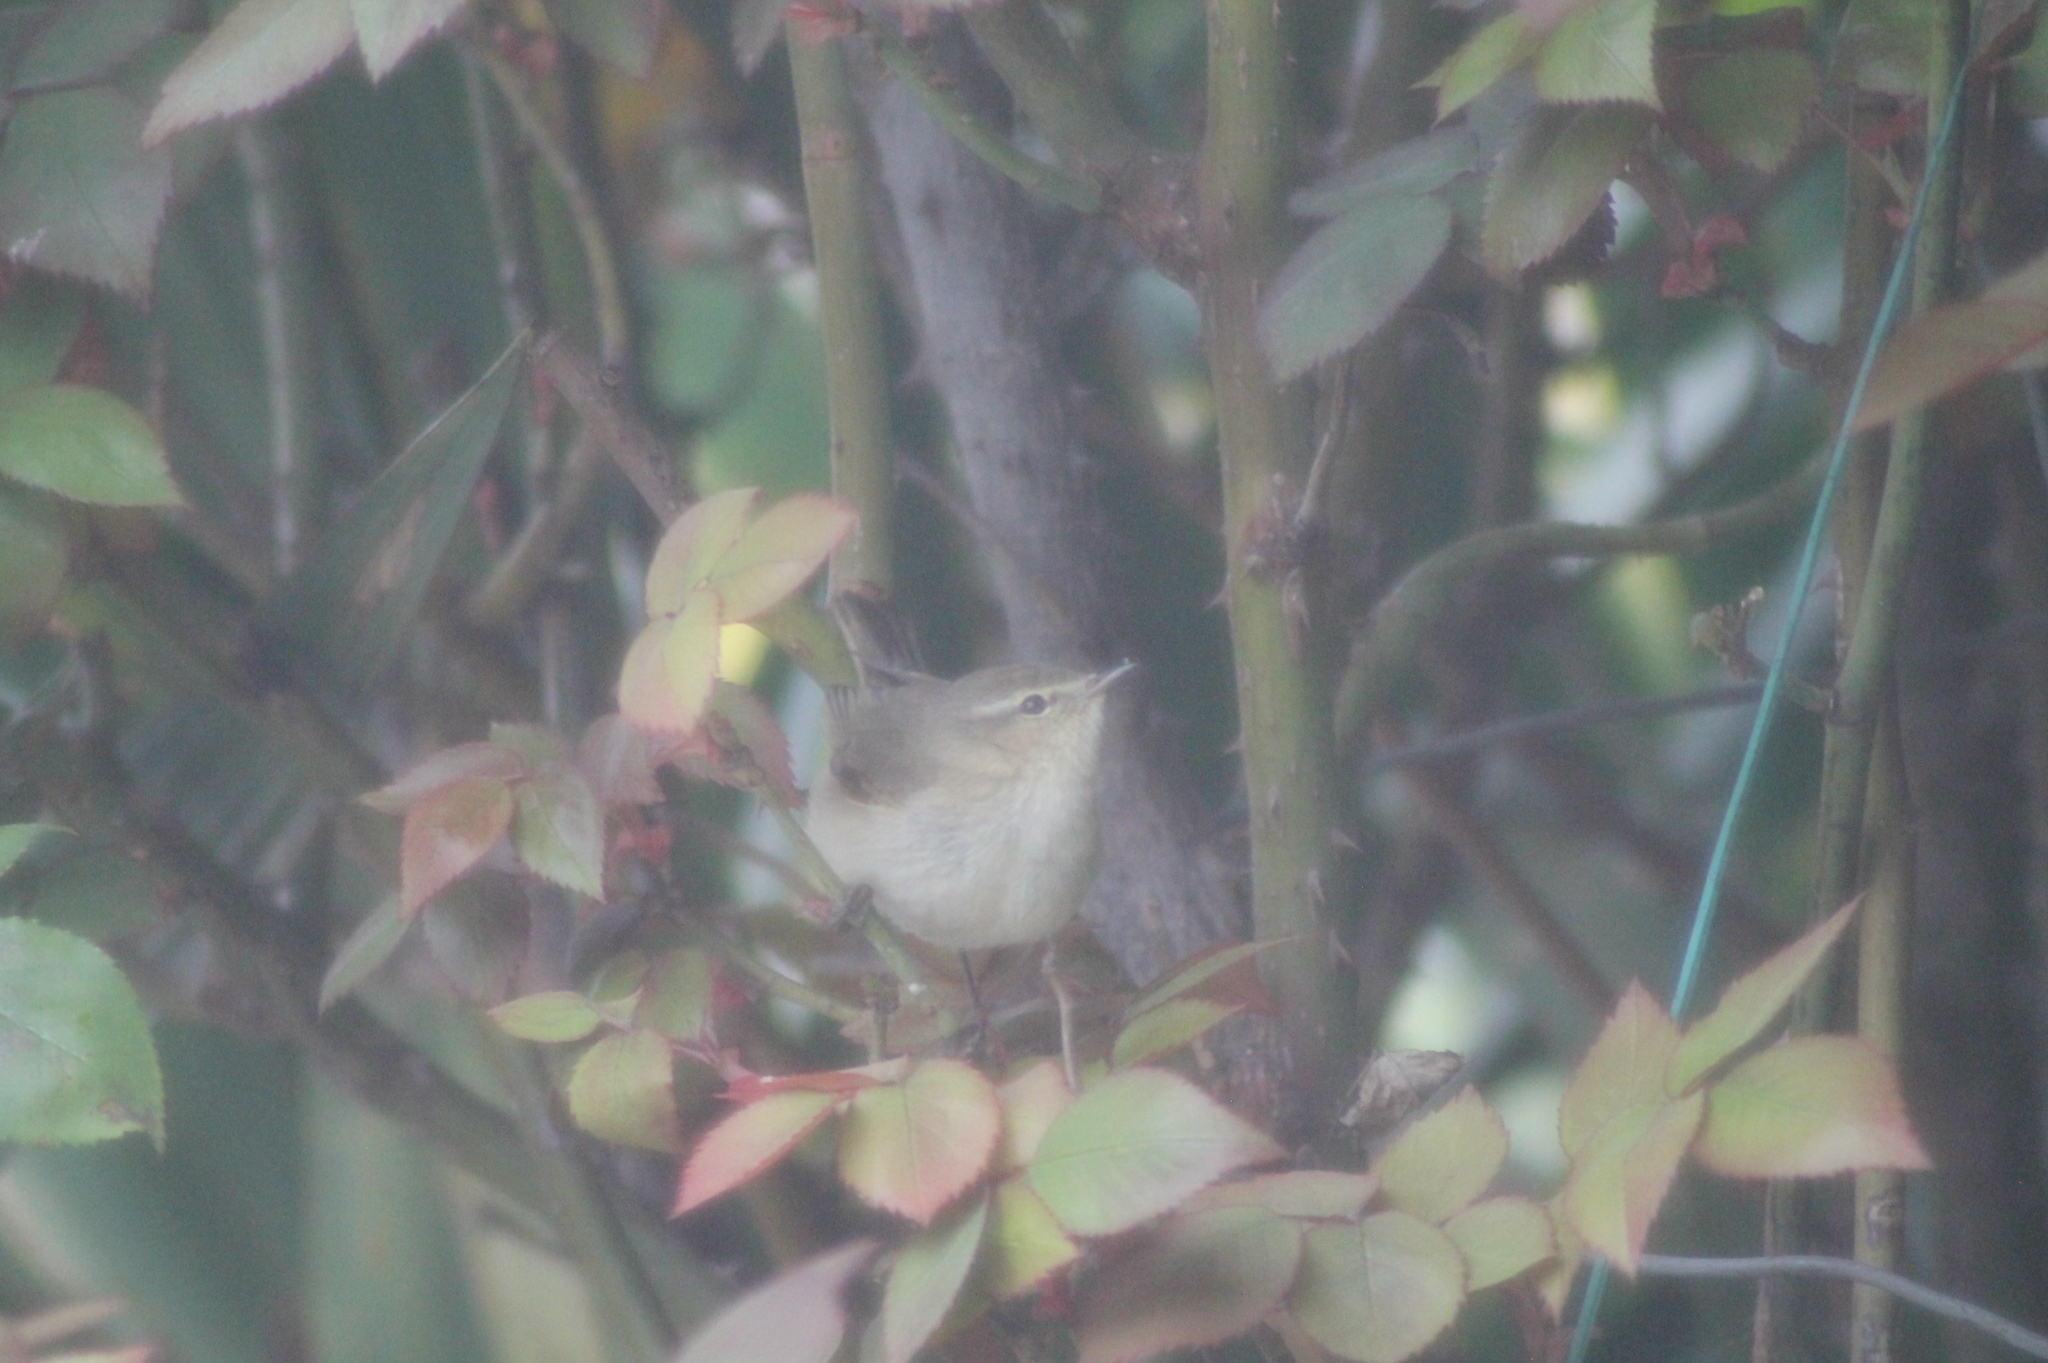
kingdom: Animalia
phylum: Chordata
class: Aves
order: Passeriformes
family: Phylloscopidae
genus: Phylloscopus
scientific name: Phylloscopus collybita
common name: Common chiffchaff
